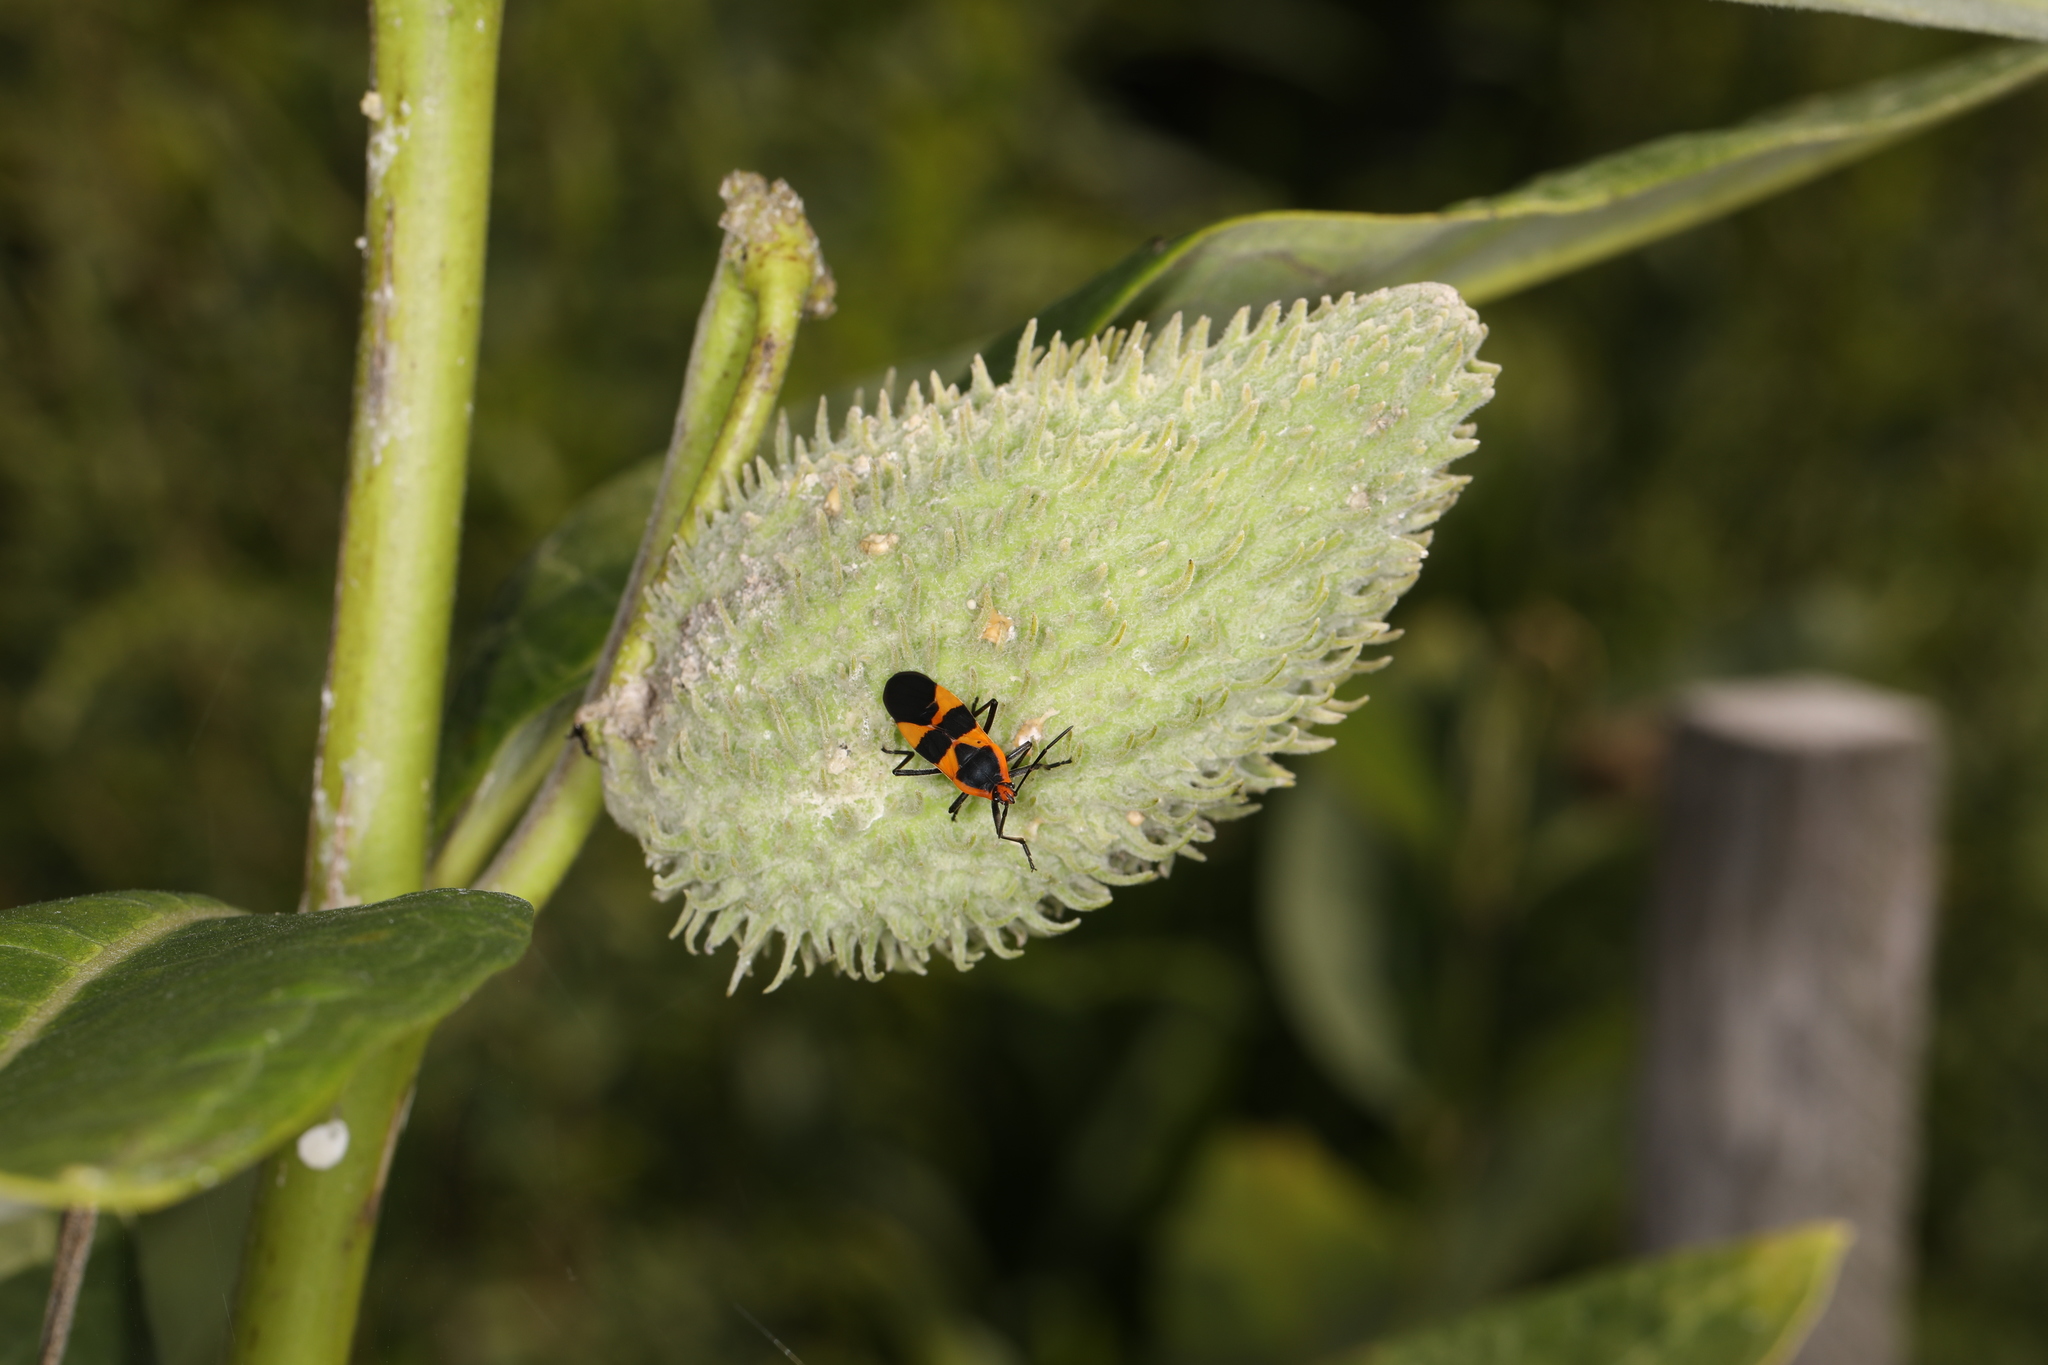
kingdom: Animalia
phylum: Arthropoda
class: Insecta
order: Hemiptera
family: Lygaeidae
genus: Oncopeltus
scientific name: Oncopeltus fasciatus
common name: Large milkweed bug
